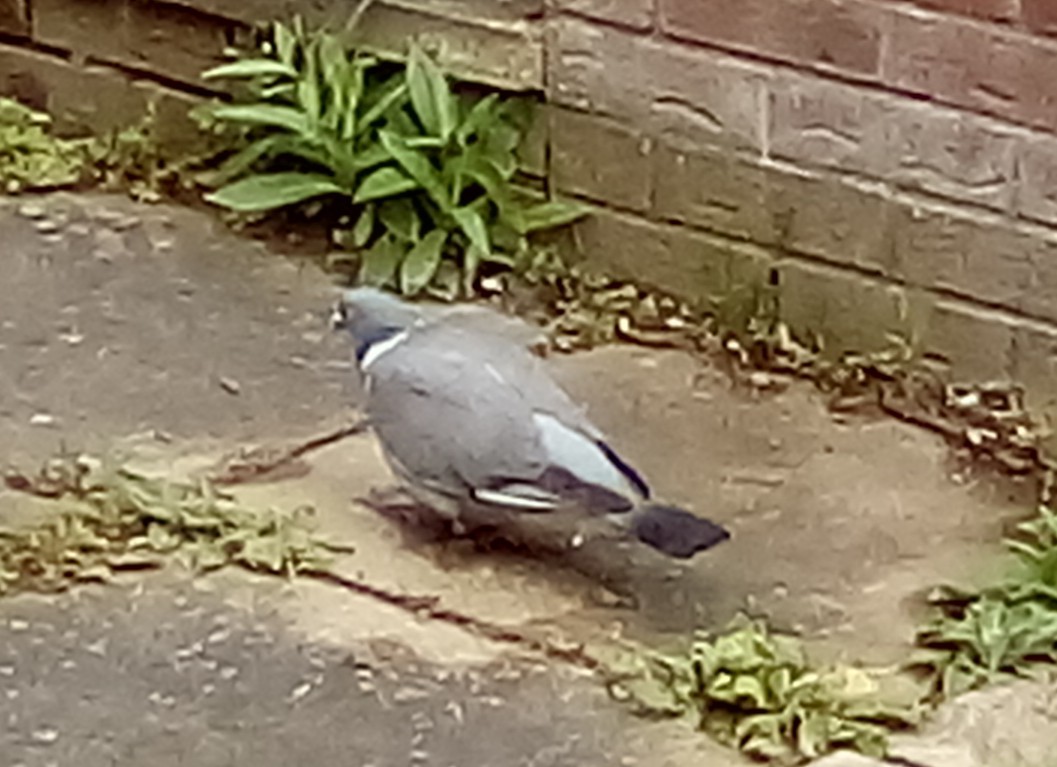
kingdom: Animalia
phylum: Chordata
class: Aves
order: Columbiformes
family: Columbidae
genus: Columba
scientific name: Columba palumbus
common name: Common wood pigeon
